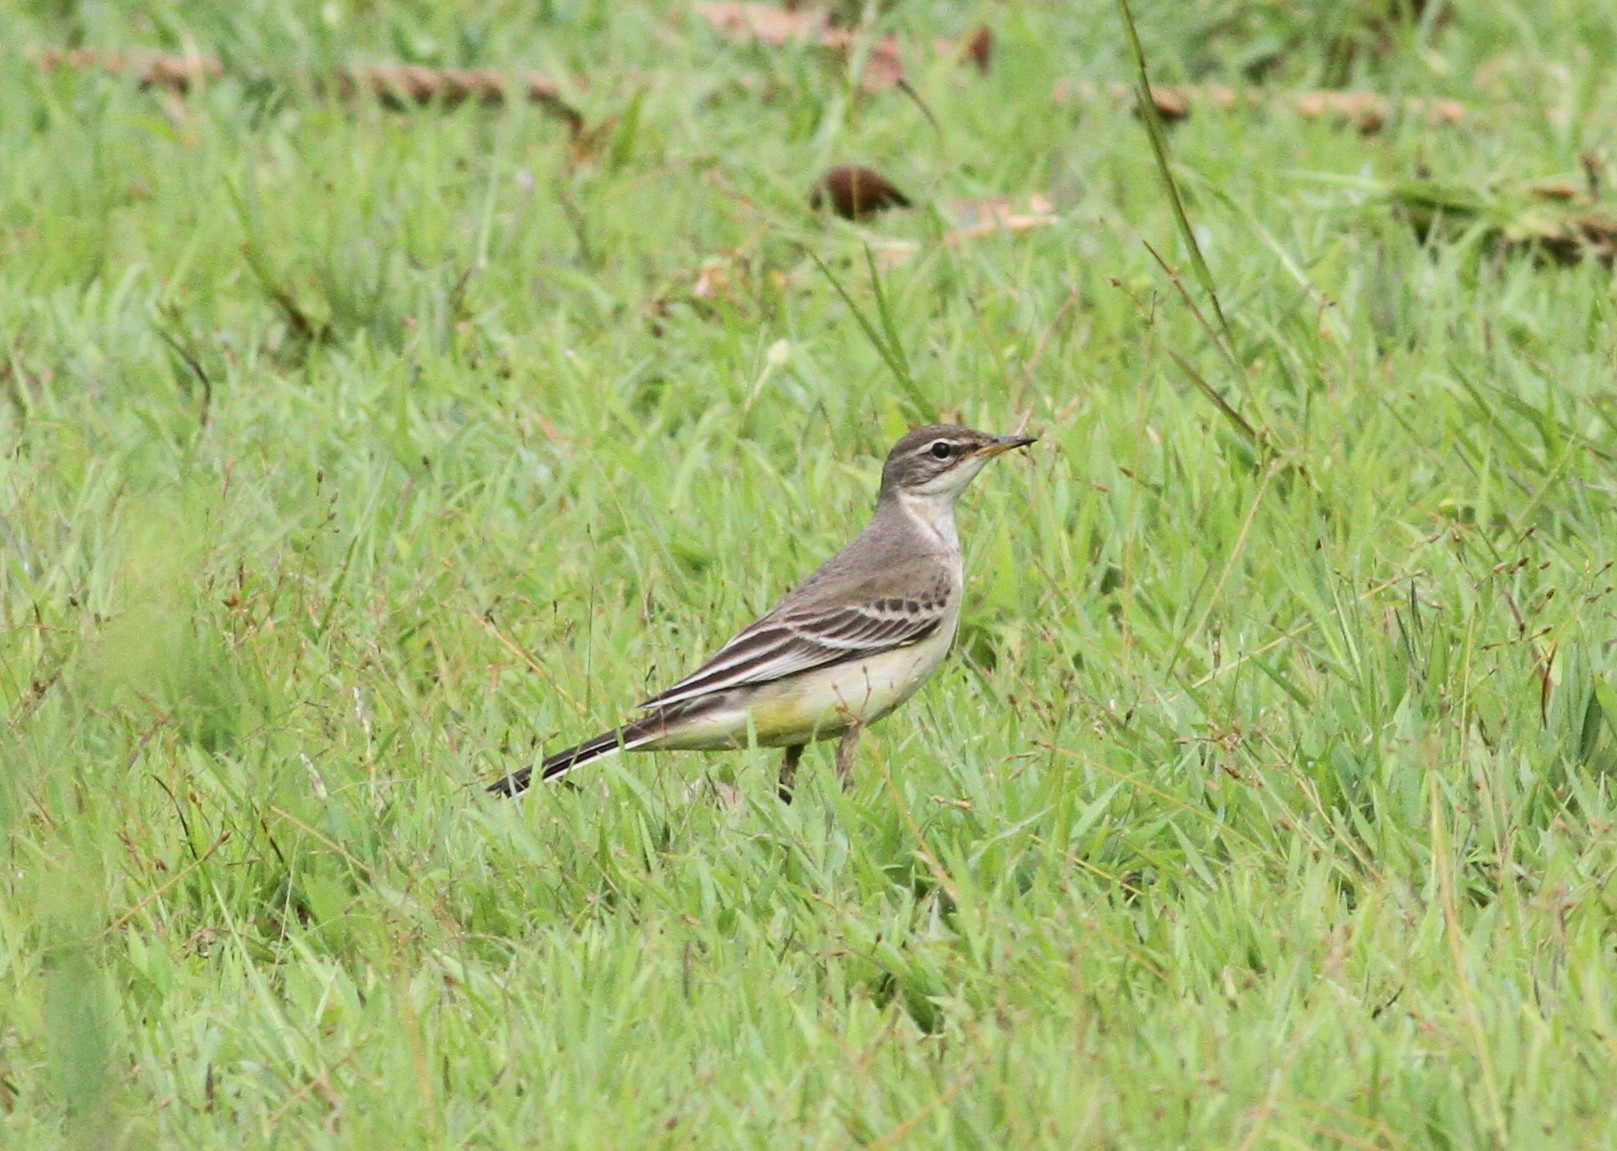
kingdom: Animalia
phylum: Chordata
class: Aves
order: Passeriformes
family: Motacillidae
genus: Motacilla
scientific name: Motacilla flava
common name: Western yellow wagtail
